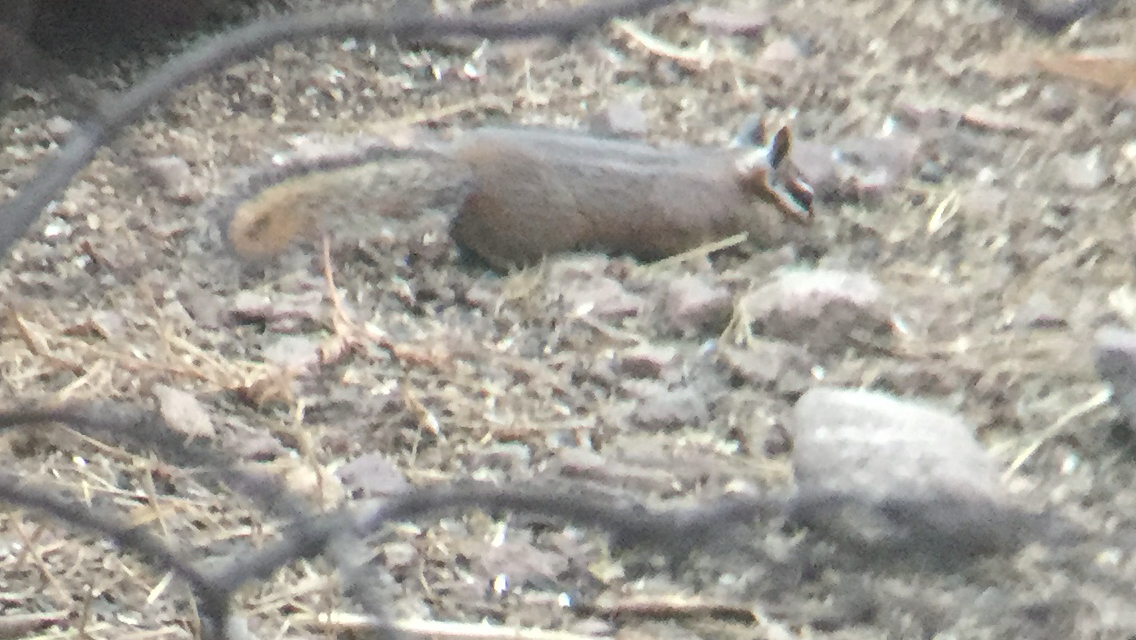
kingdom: Animalia
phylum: Chordata
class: Mammalia
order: Rodentia
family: Sciuridae
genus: Tamias
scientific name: Tamias dorsalis
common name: Cliff chipmunk
